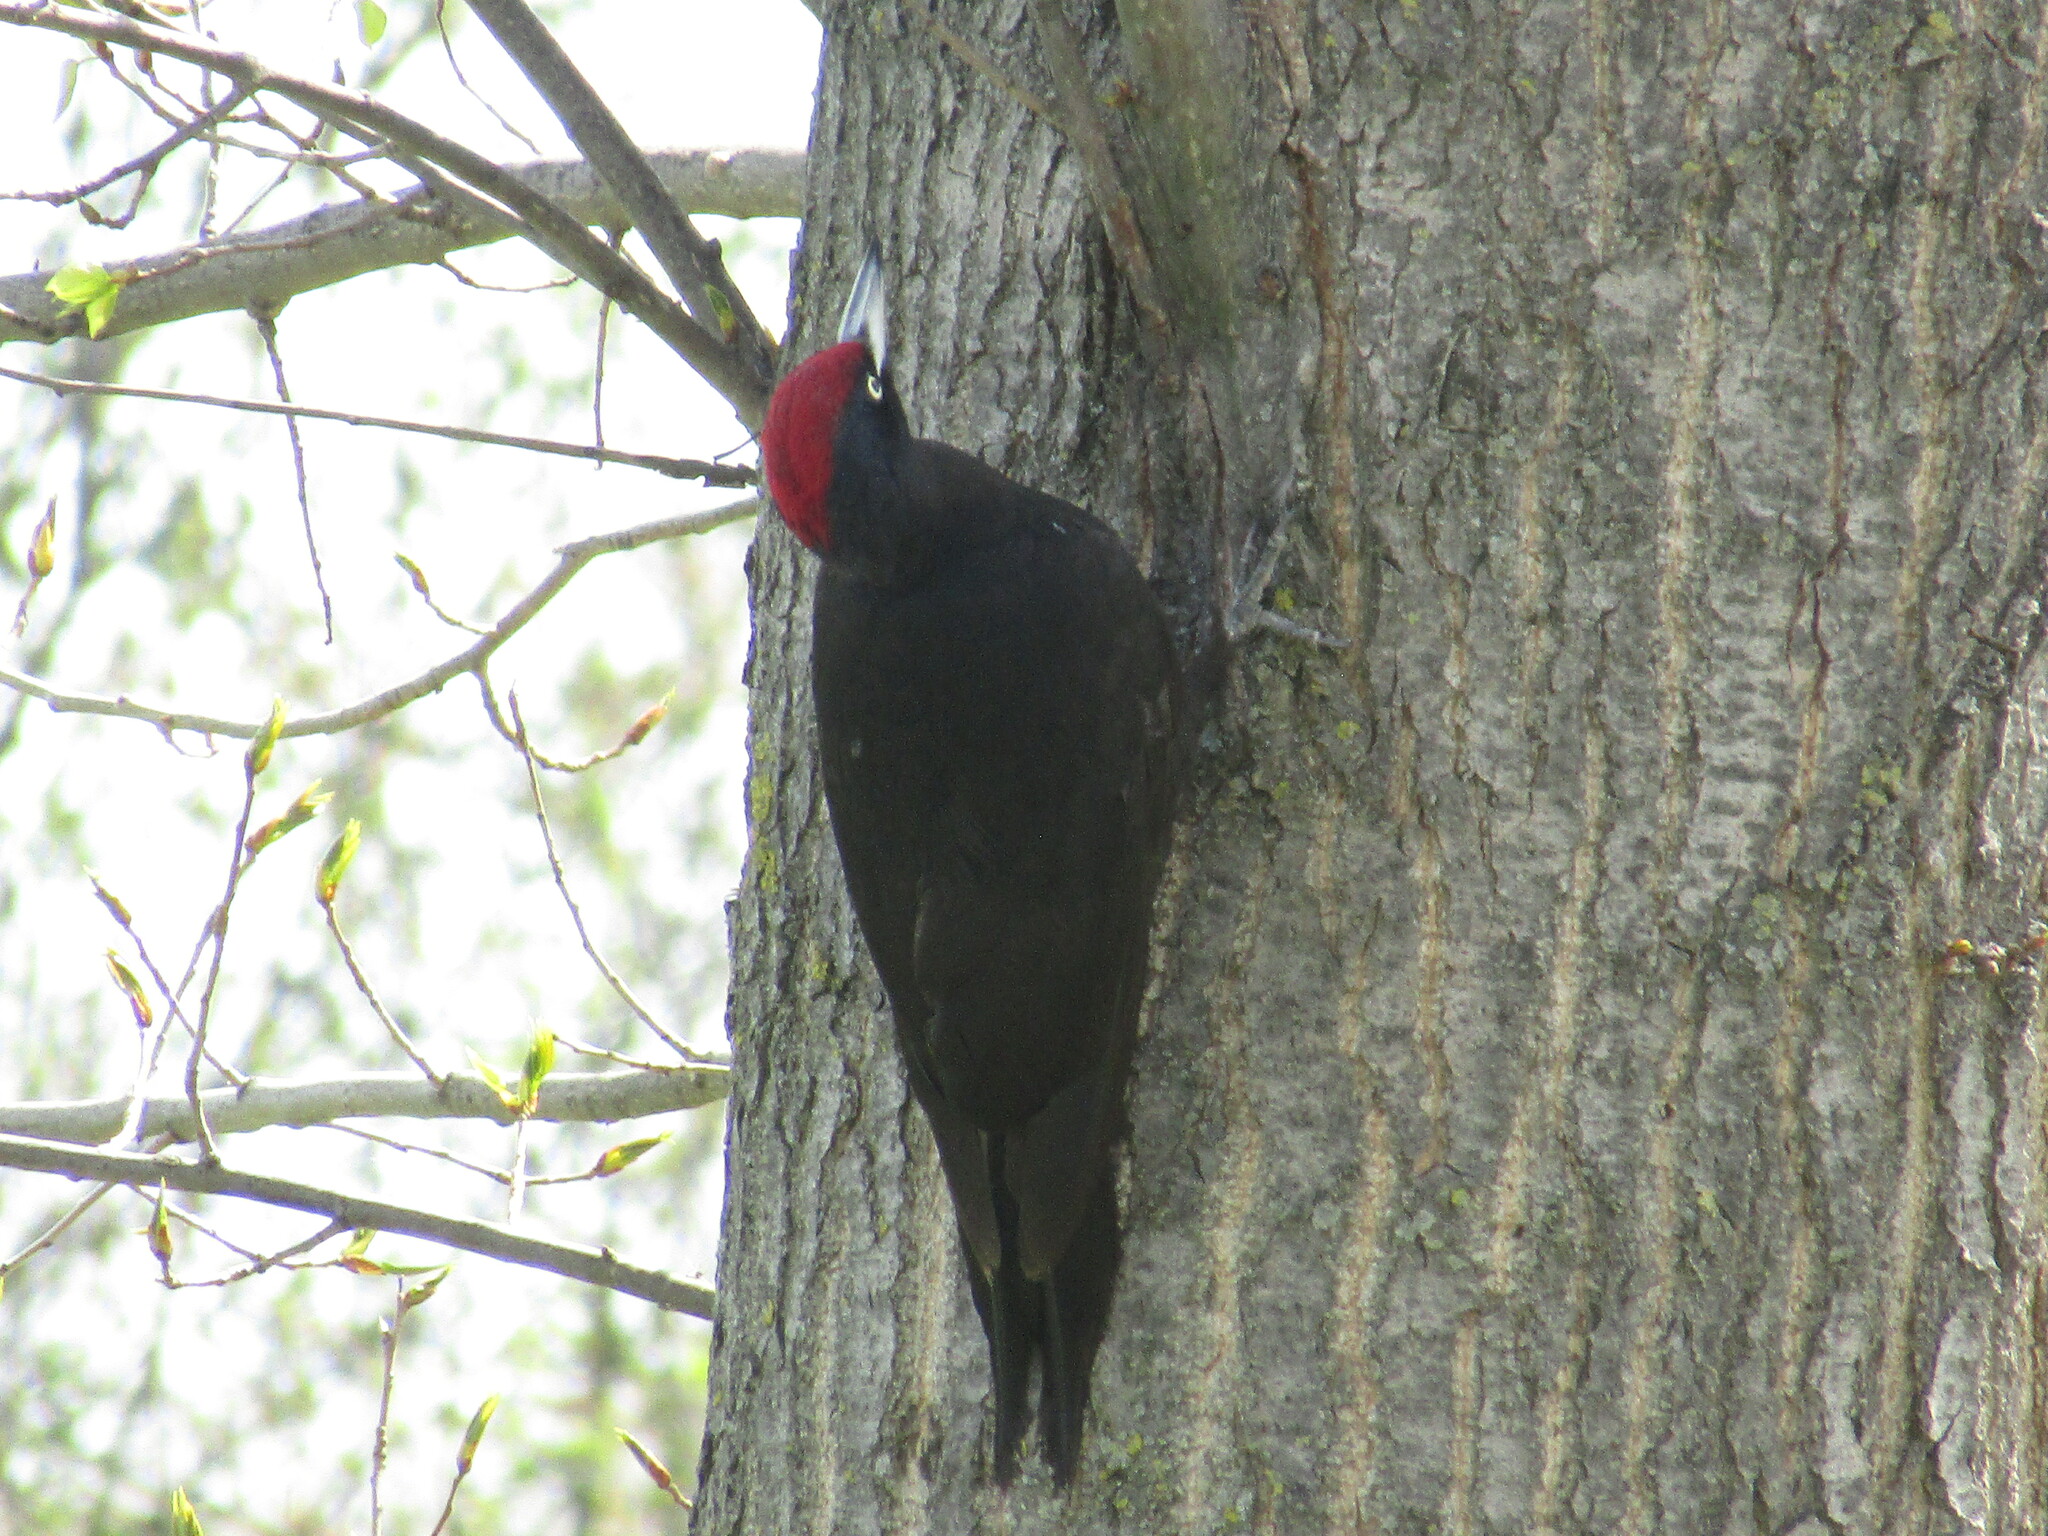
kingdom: Animalia
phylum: Chordata
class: Aves
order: Piciformes
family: Picidae
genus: Dryocopus
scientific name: Dryocopus martius
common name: Black woodpecker
